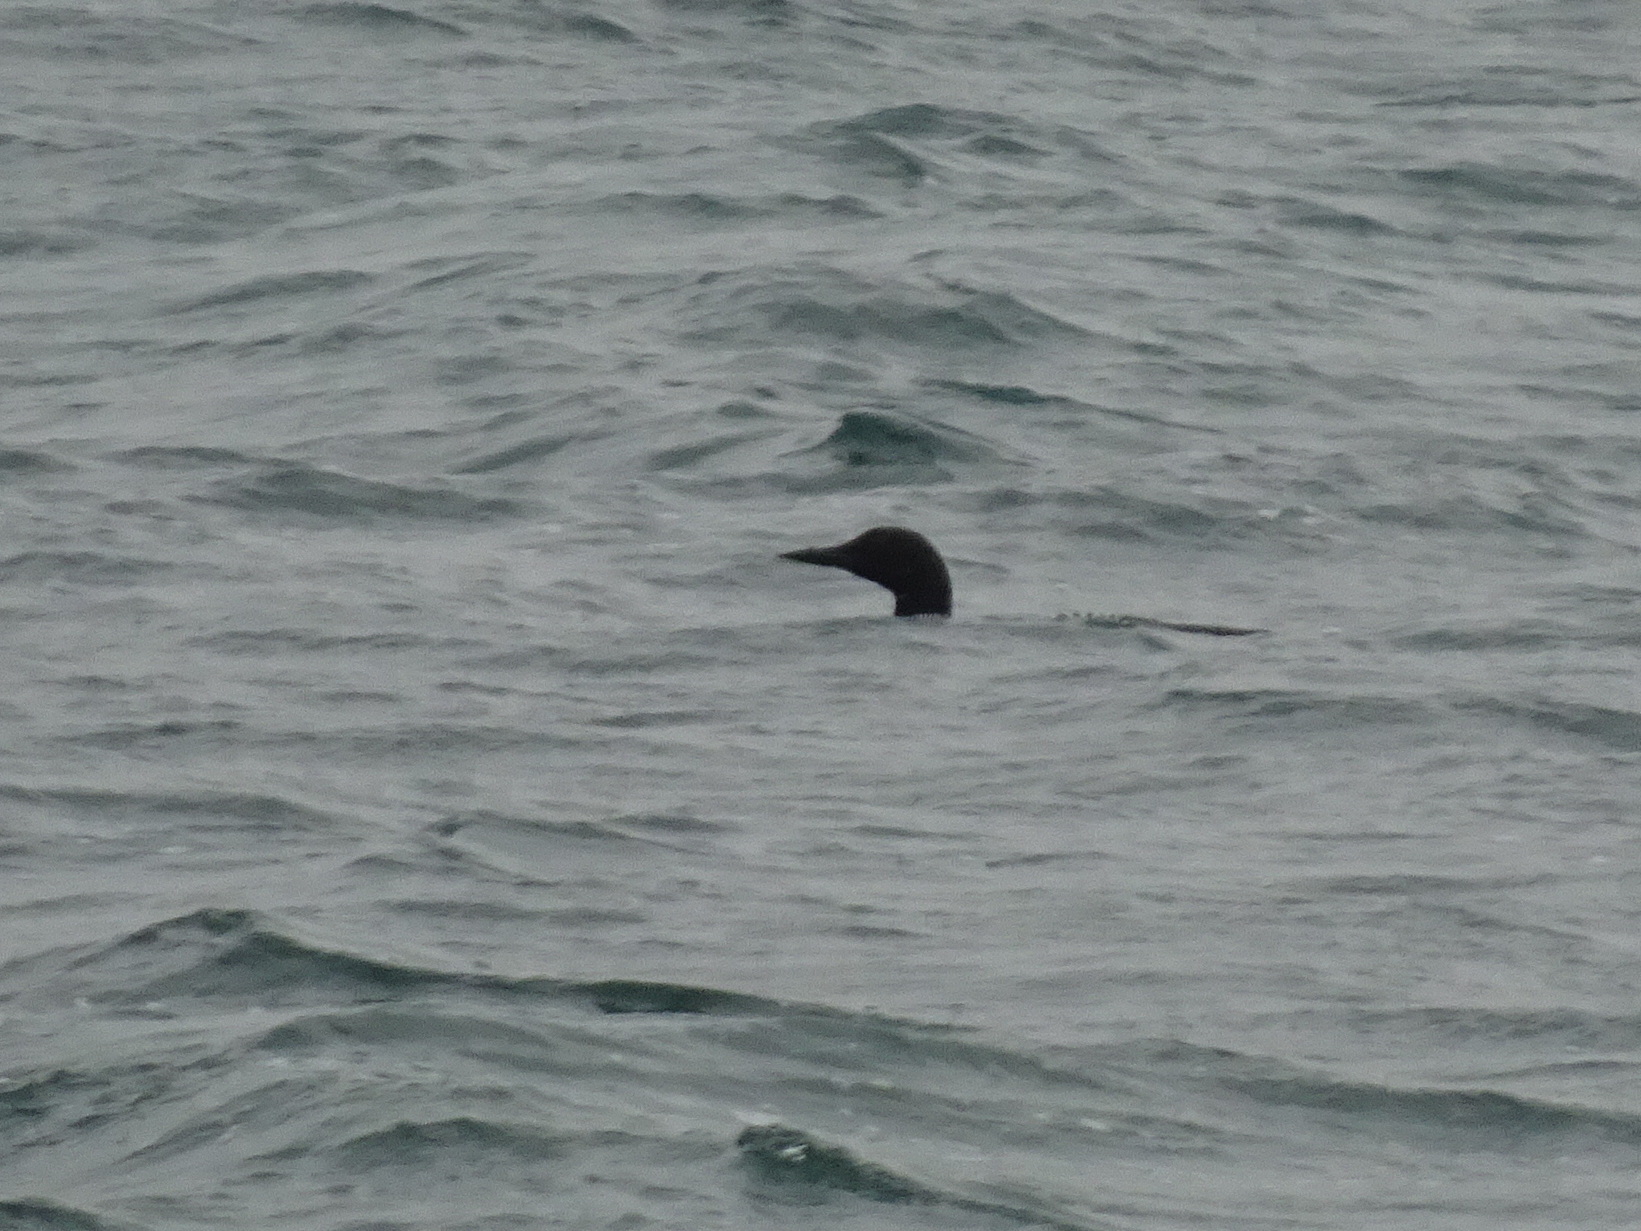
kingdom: Animalia
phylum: Chordata
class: Aves
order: Gaviiformes
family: Gaviidae
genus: Gavia
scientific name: Gavia immer
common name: Common loon
